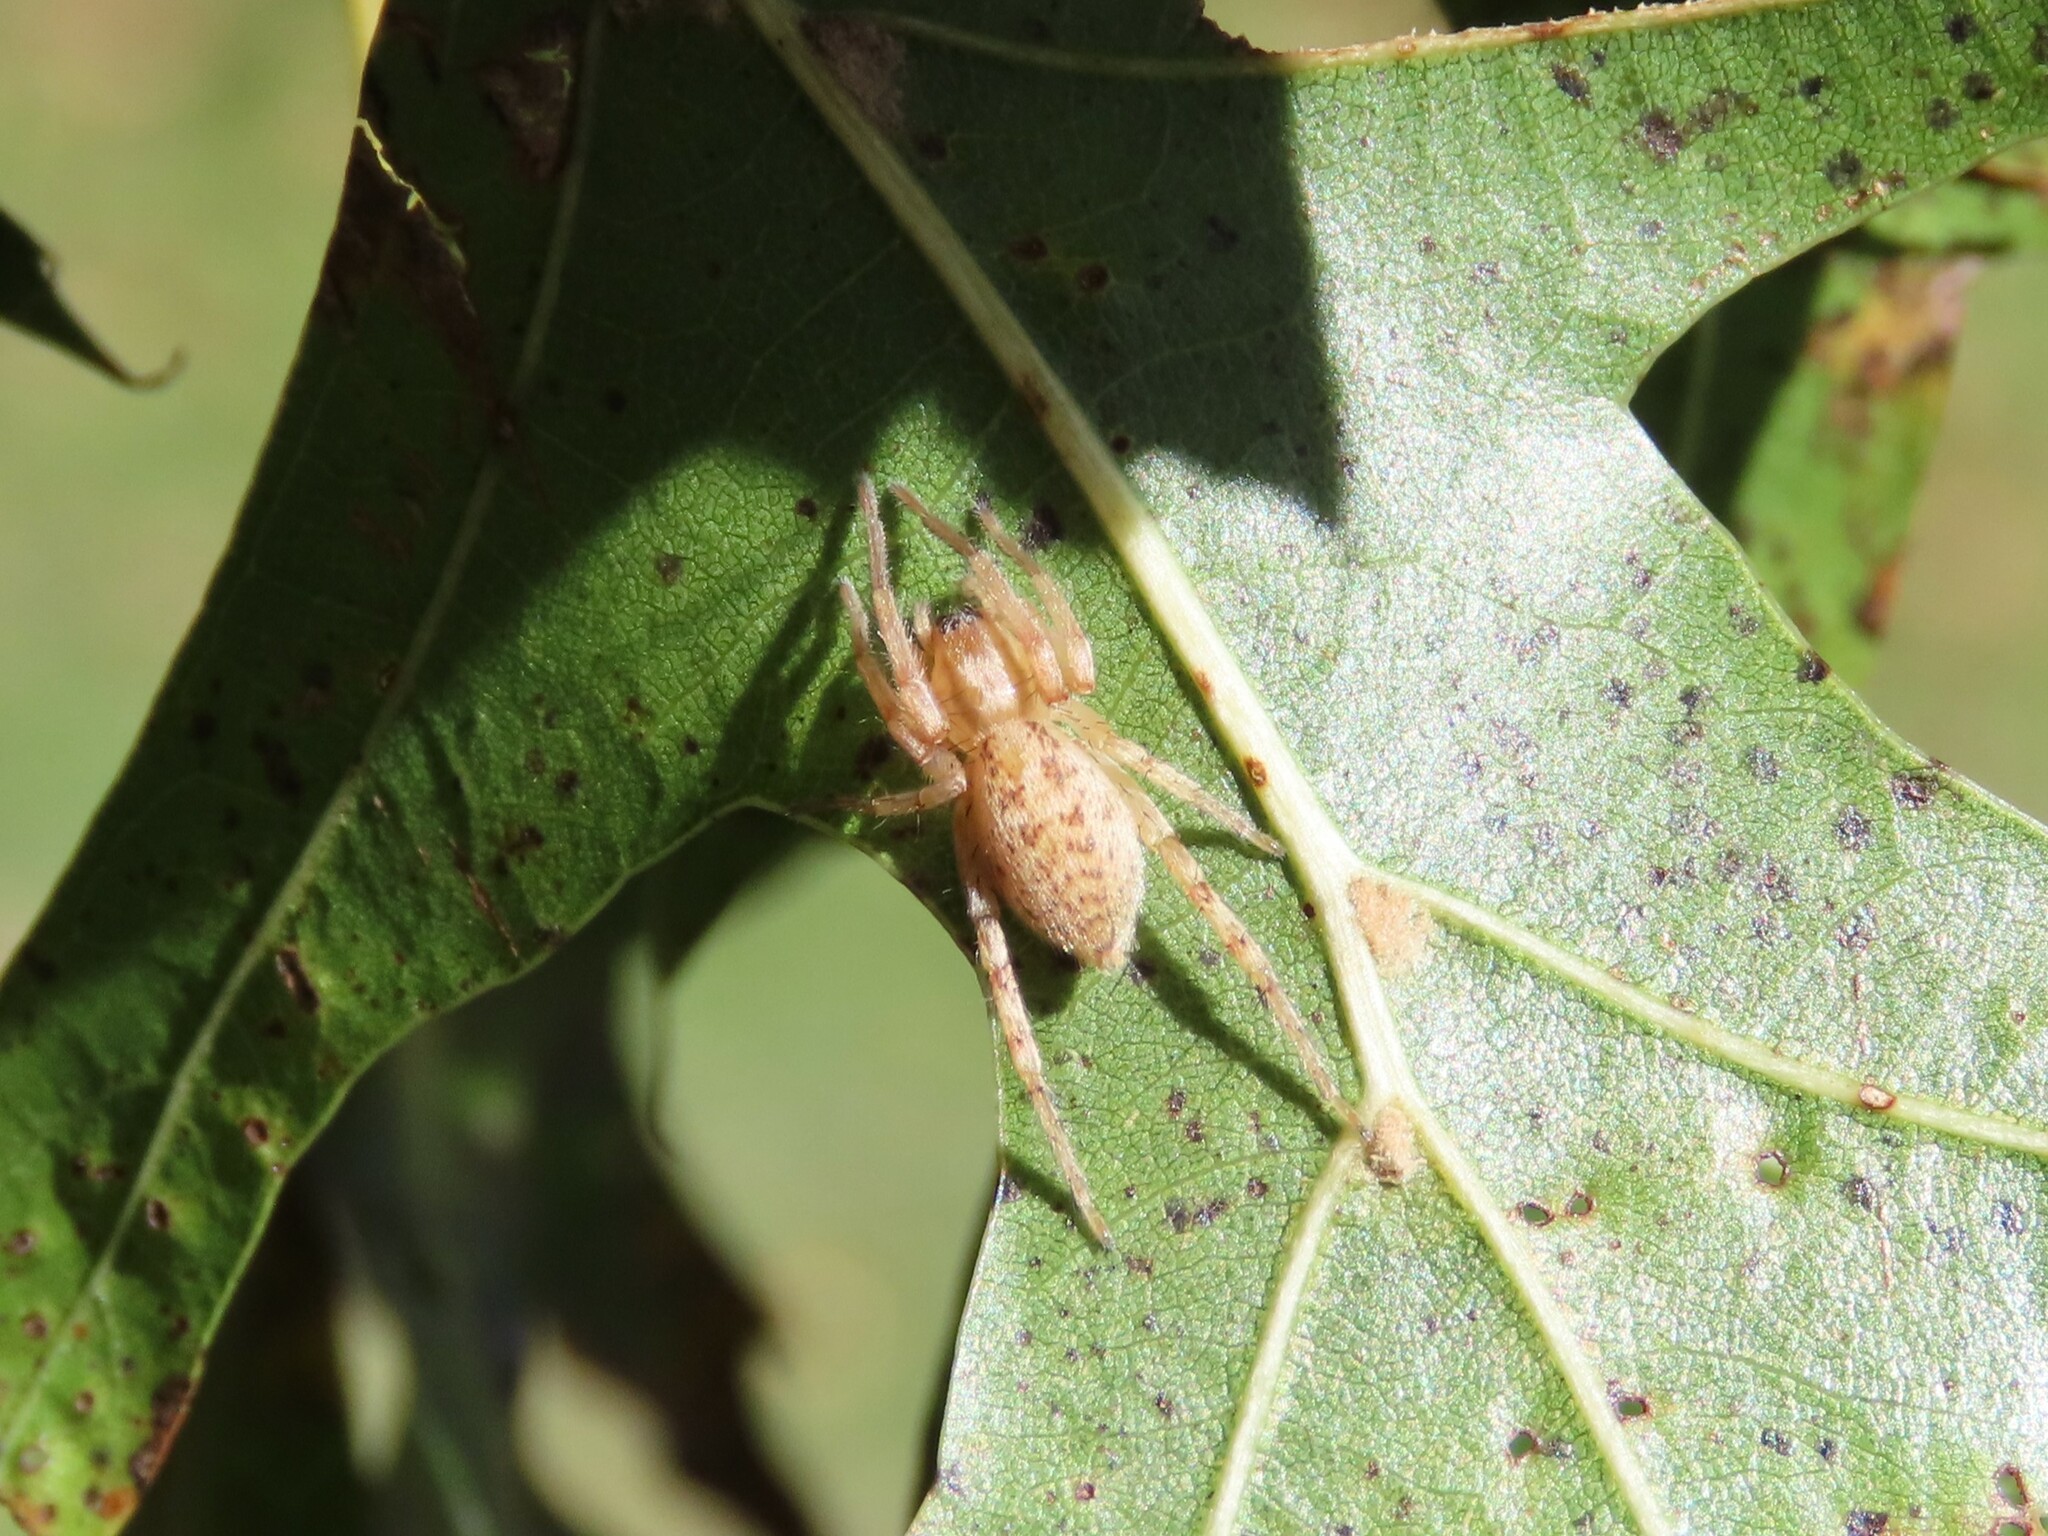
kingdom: Animalia
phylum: Arthropoda
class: Arachnida
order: Araneae
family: Anyphaenidae
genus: Hibana
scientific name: Hibana gracilis
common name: Garden ghost spider
